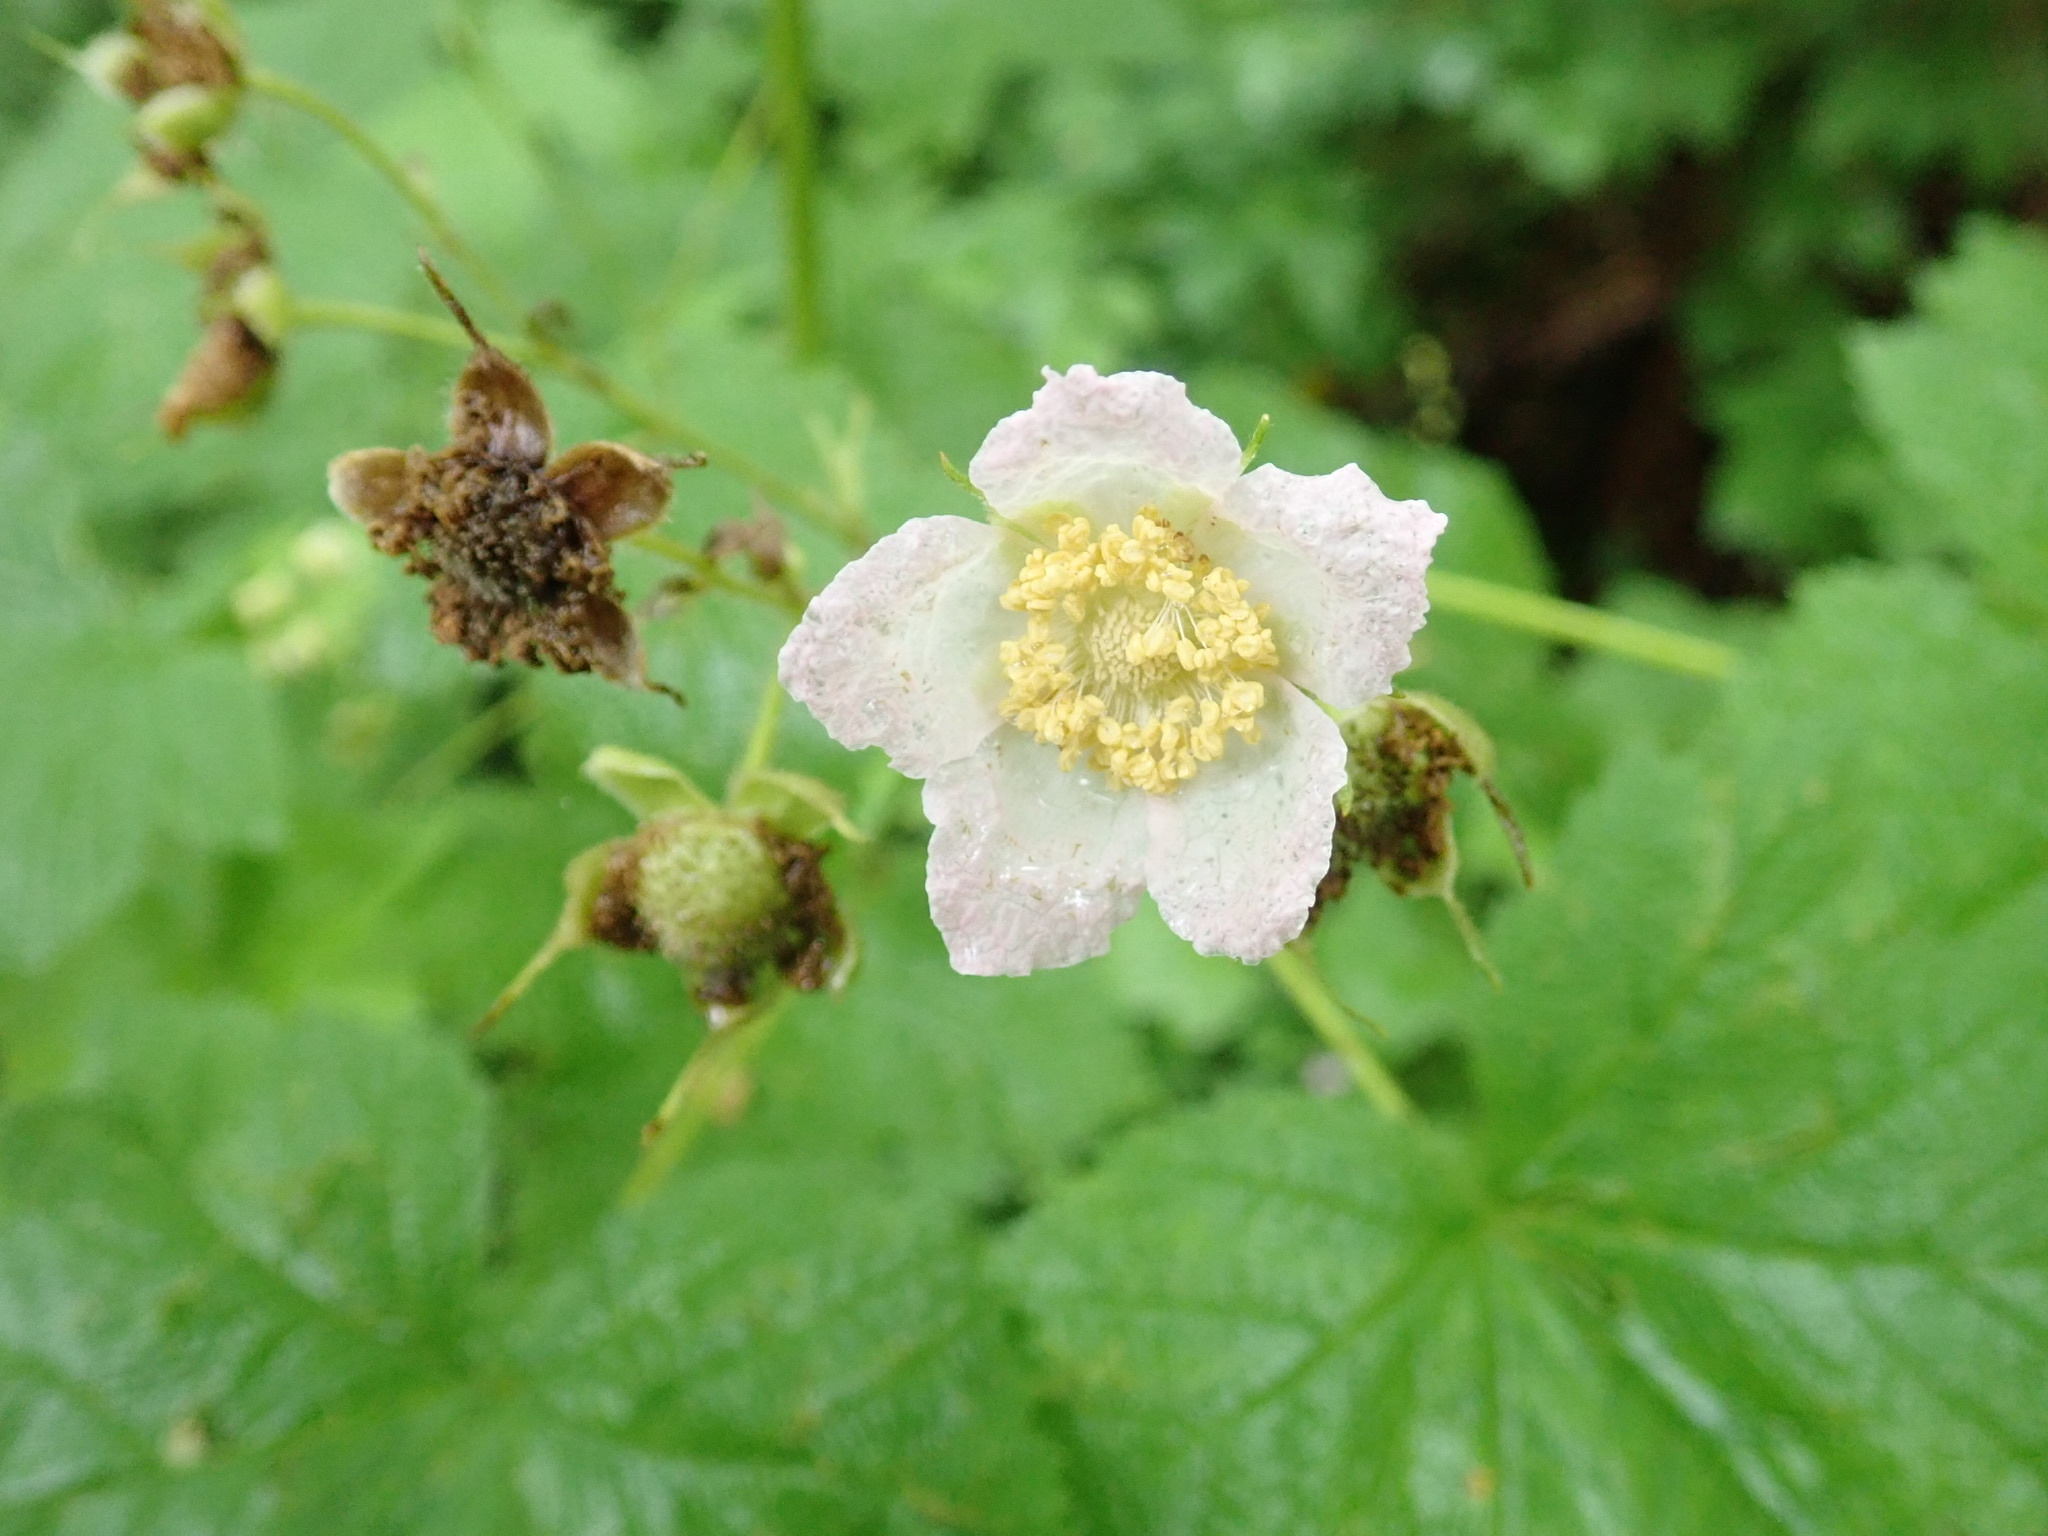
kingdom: Plantae
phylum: Tracheophyta
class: Magnoliopsida
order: Rosales
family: Rosaceae
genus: Rubus
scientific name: Rubus parviflorus
